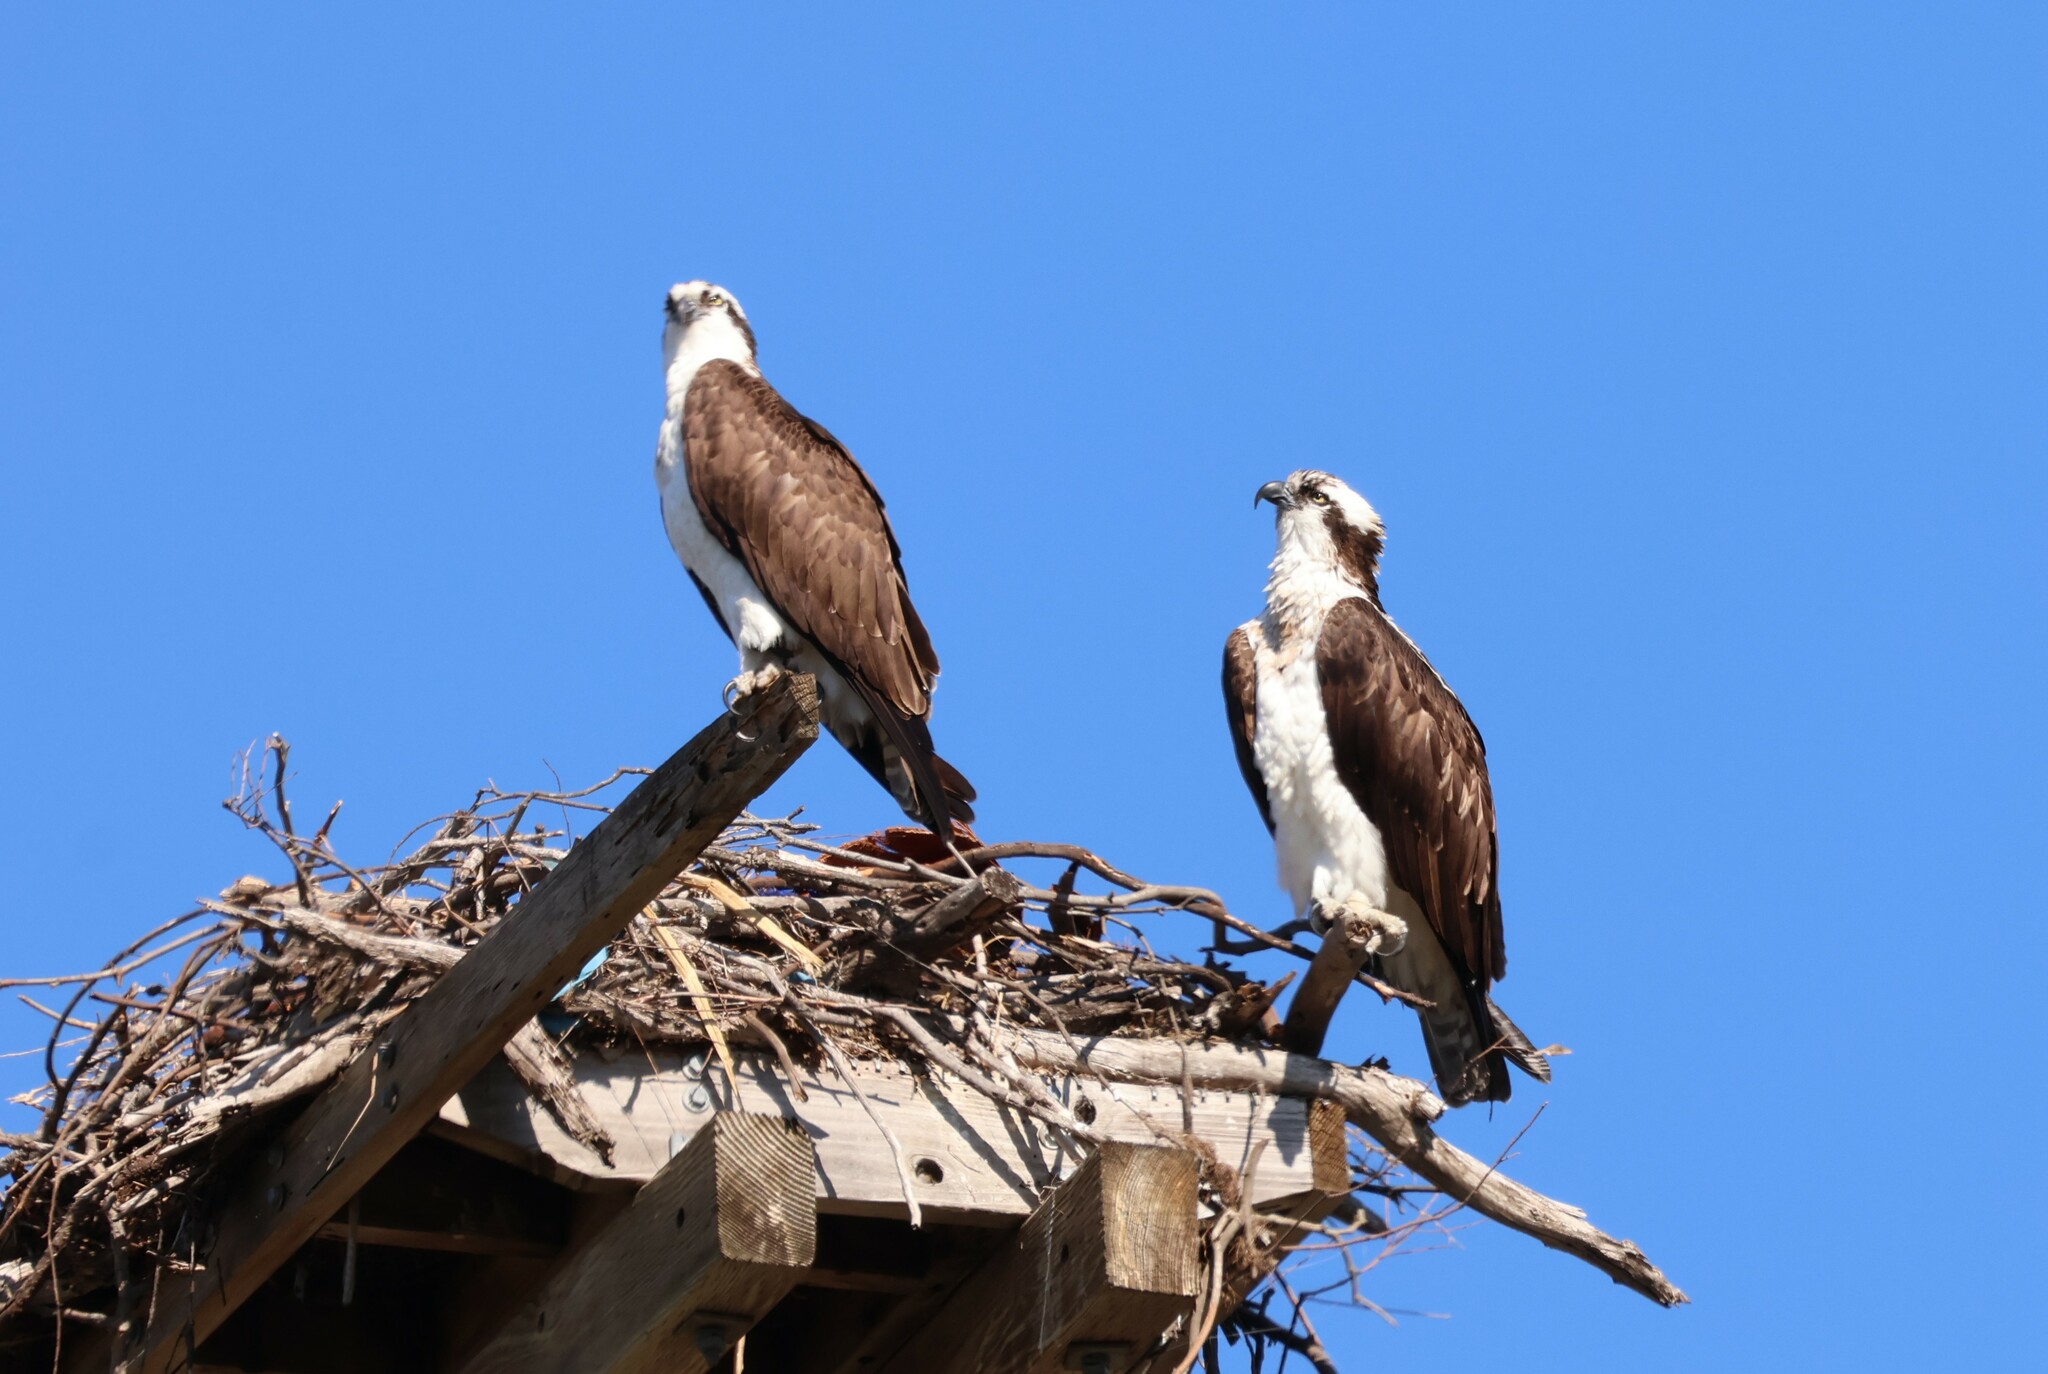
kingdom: Animalia
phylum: Chordata
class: Aves
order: Accipitriformes
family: Pandionidae
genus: Pandion
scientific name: Pandion haliaetus
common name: Osprey
